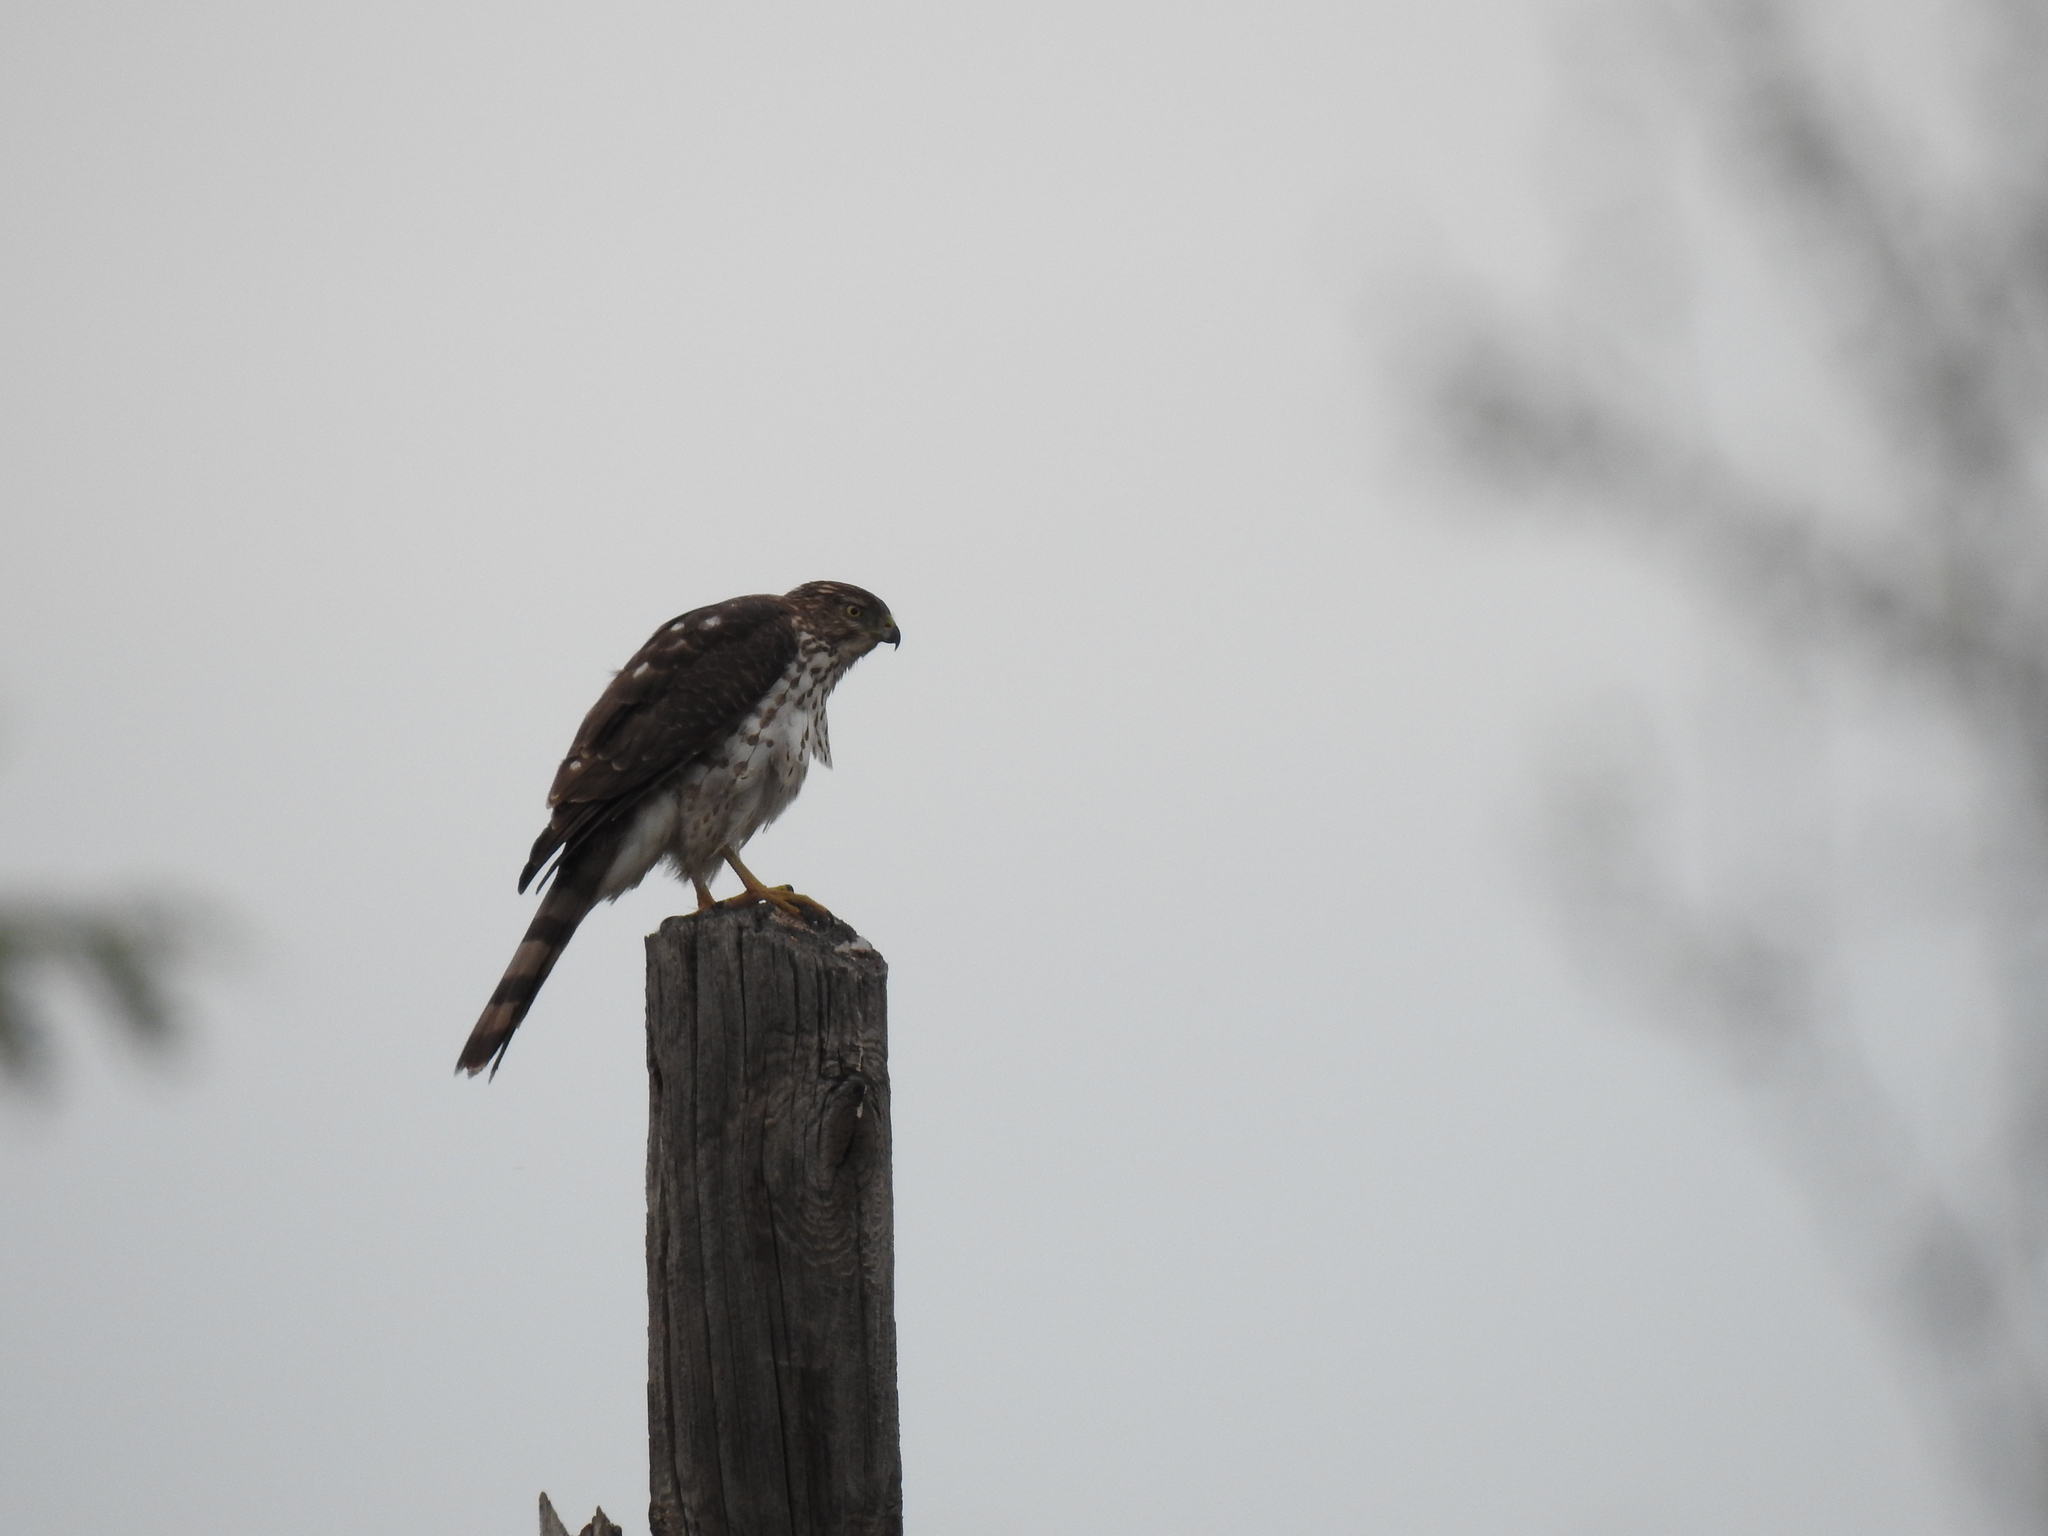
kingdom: Animalia
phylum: Chordata
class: Aves
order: Accipitriformes
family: Accipitridae
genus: Accipiter
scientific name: Accipiter cooperii
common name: Cooper's hawk
